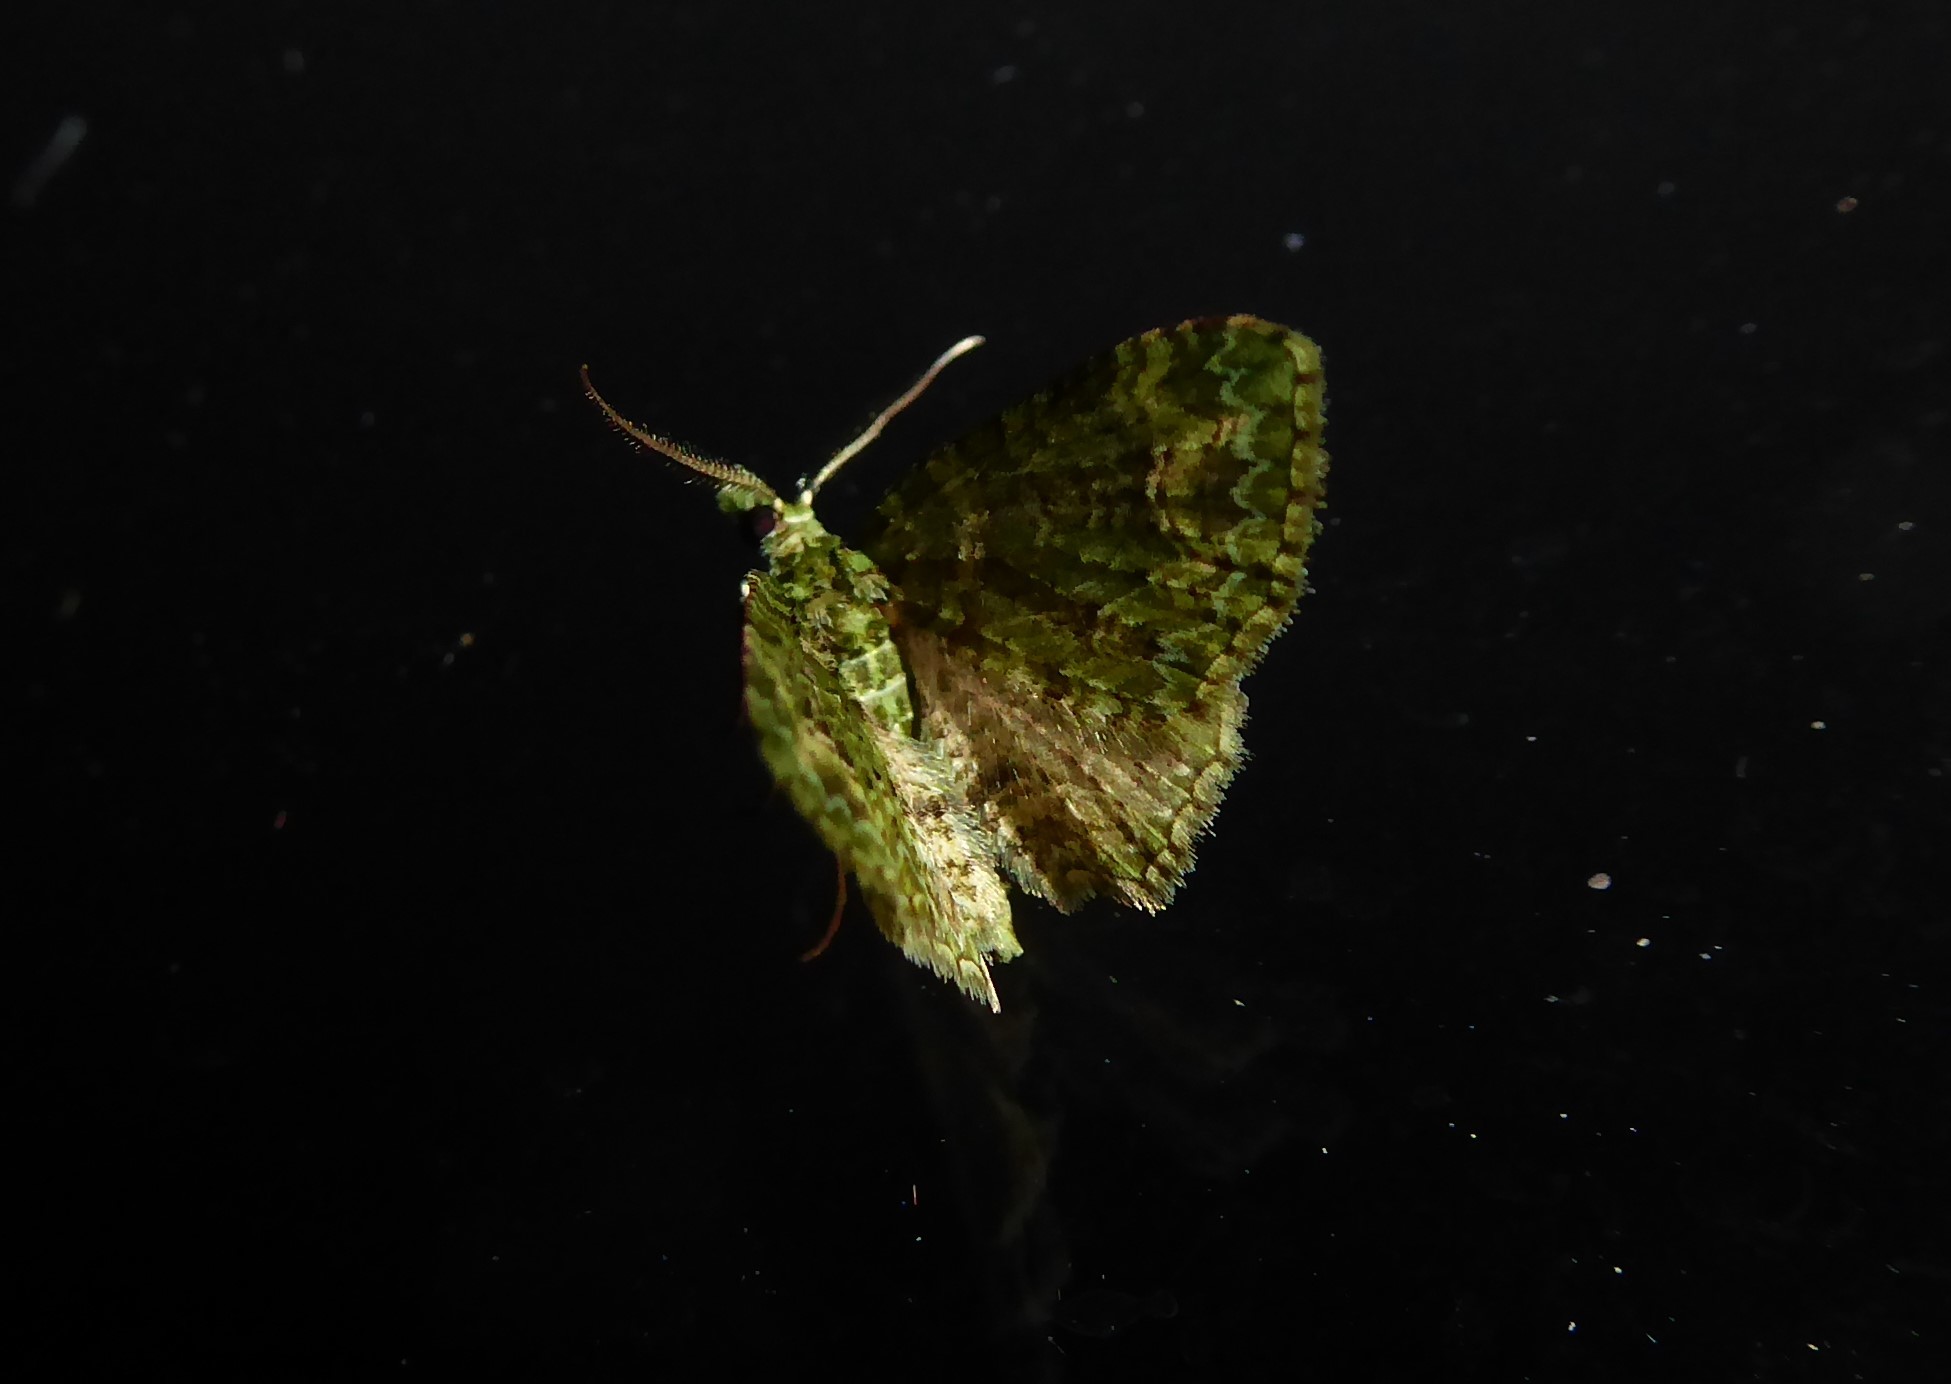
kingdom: Animalia
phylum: Arthropoda
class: Insecta
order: Lepidoptera
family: Geometridae
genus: Pasiphila
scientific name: Pasiphila muscosata
